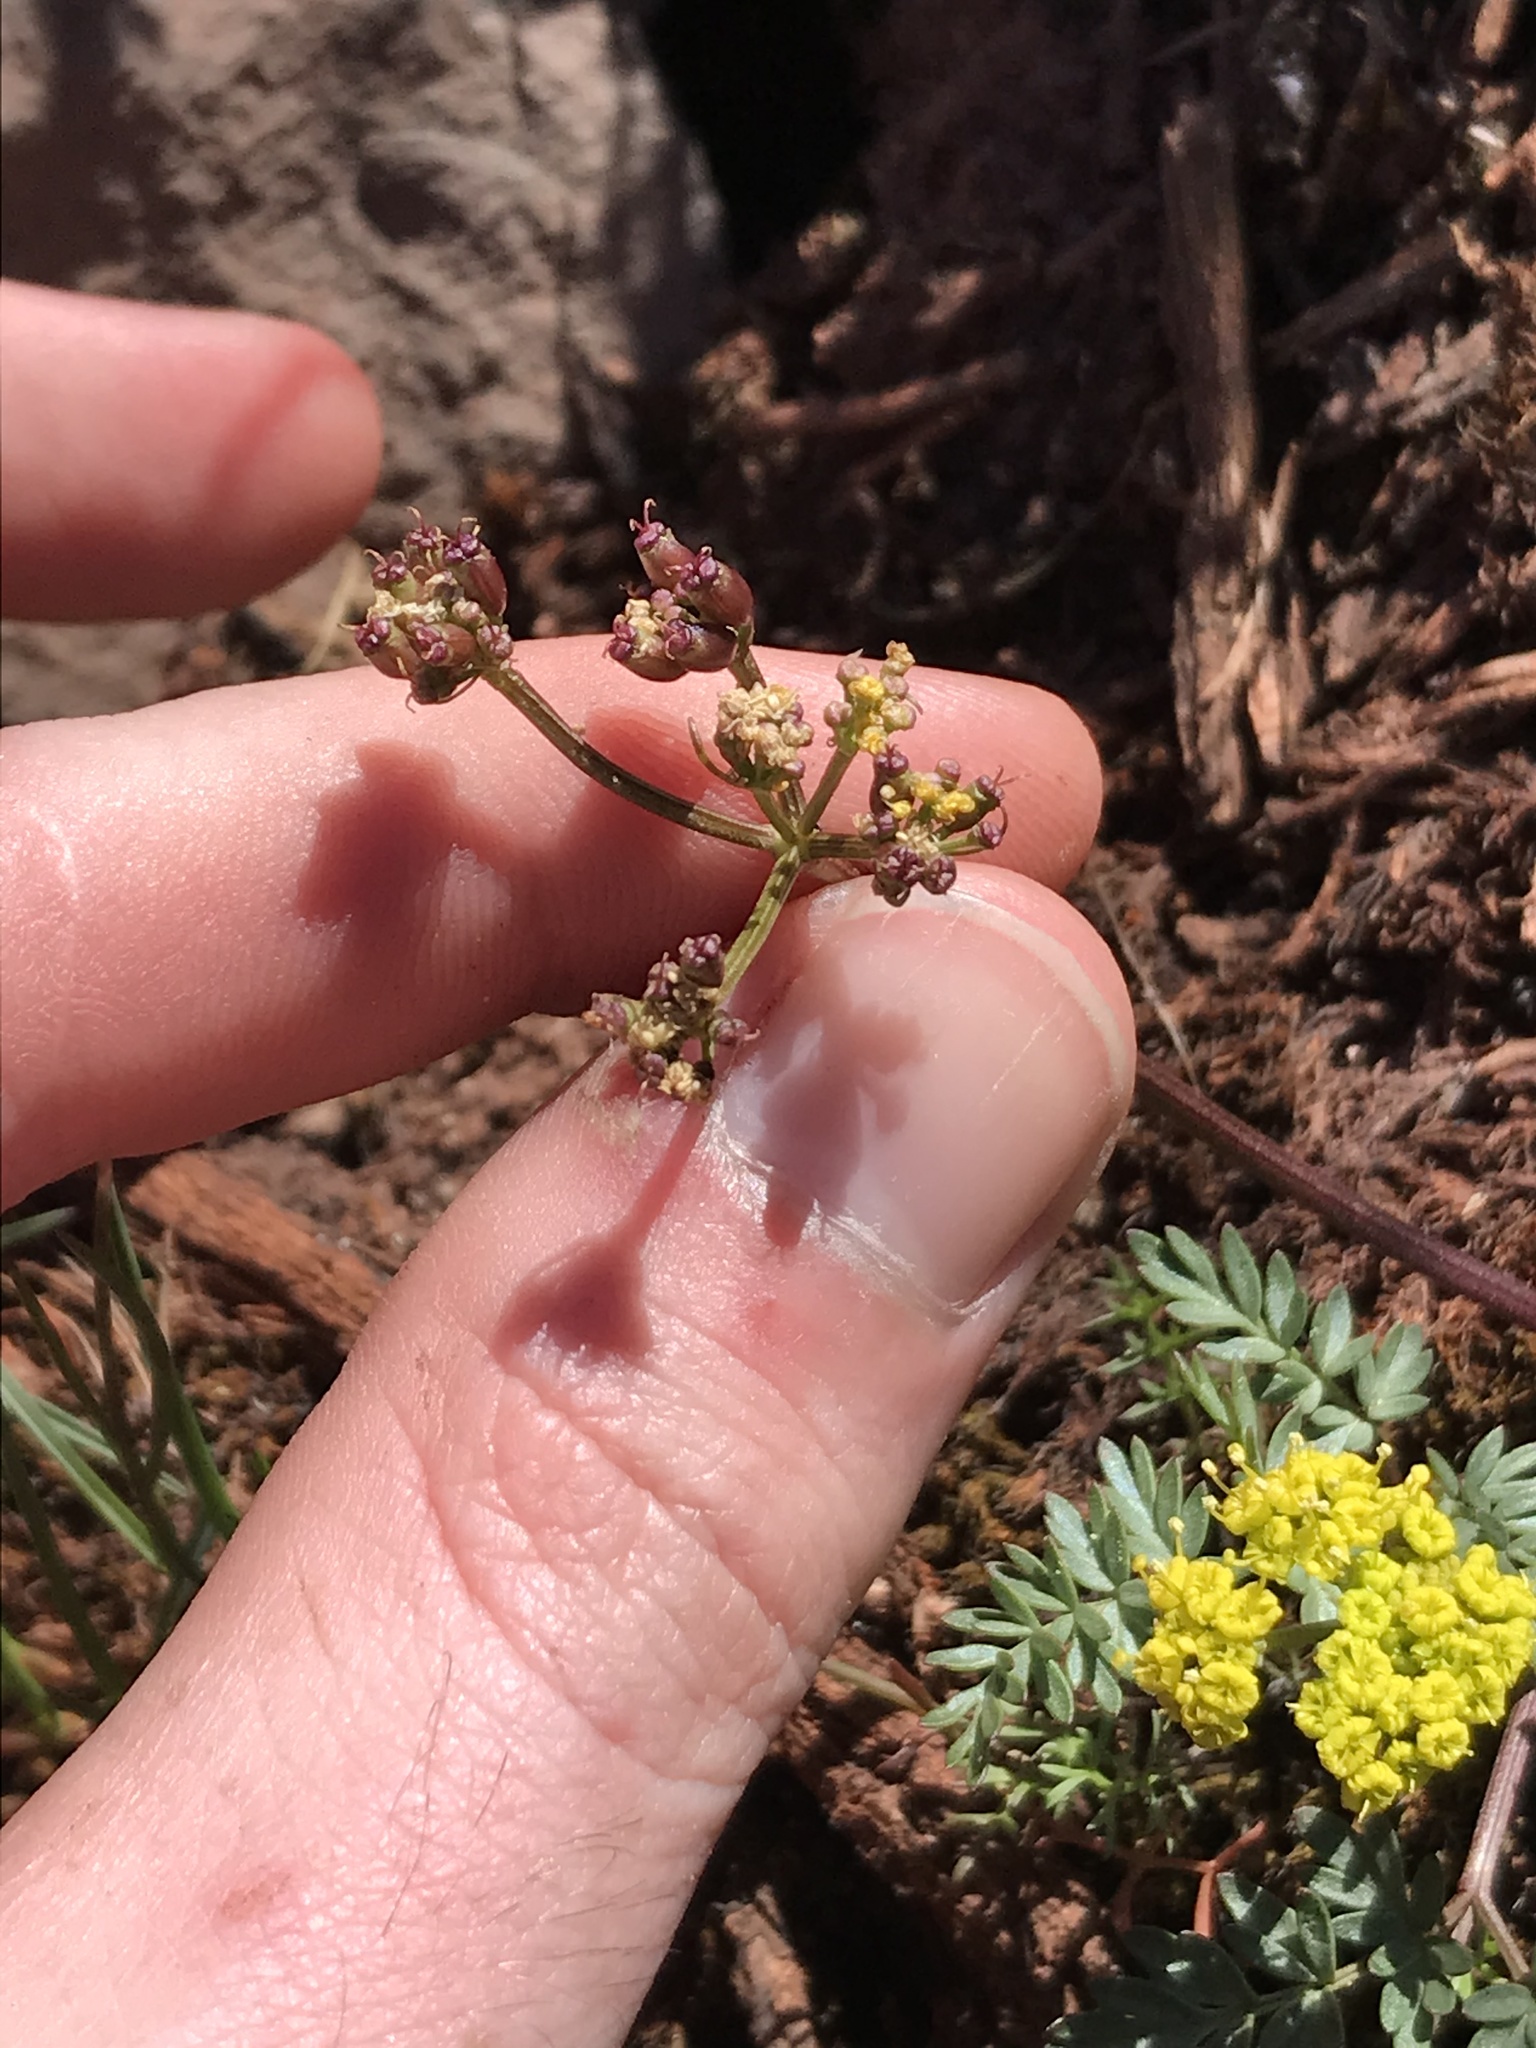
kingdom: Plantae
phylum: Tracheophyta
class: Magnoliopsida
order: Apiales
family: Apiaceae
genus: Lomatium
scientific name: Lomatium hendersonii
